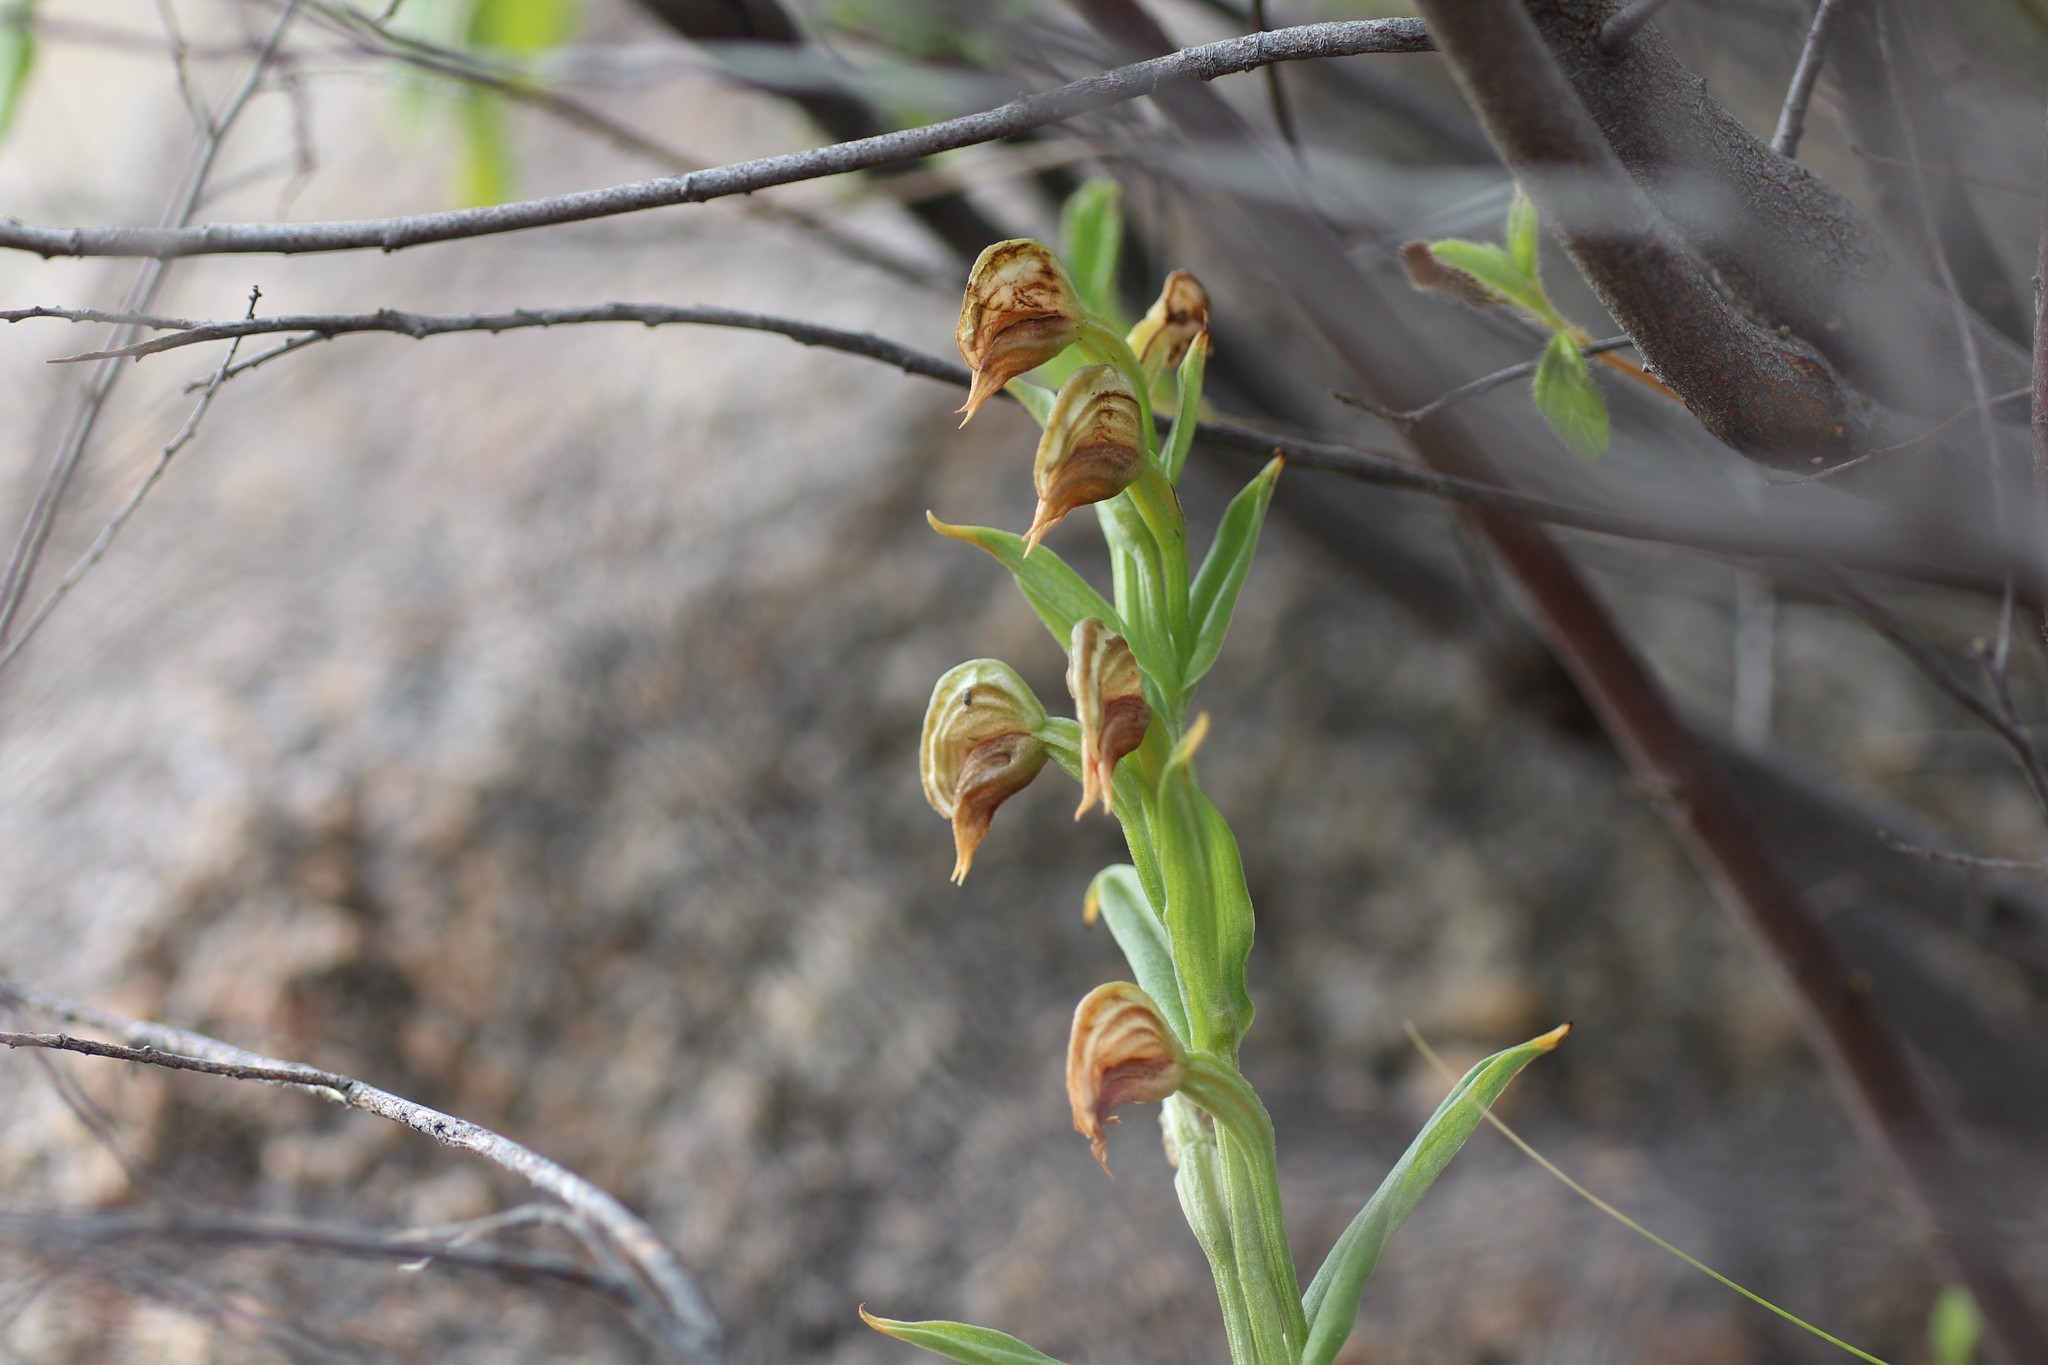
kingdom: Plantae
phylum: Tracheophyta
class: Liliopsida
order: Asparagales
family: Orchidaceae
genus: Pterostylis
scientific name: Pterostylis vittata
